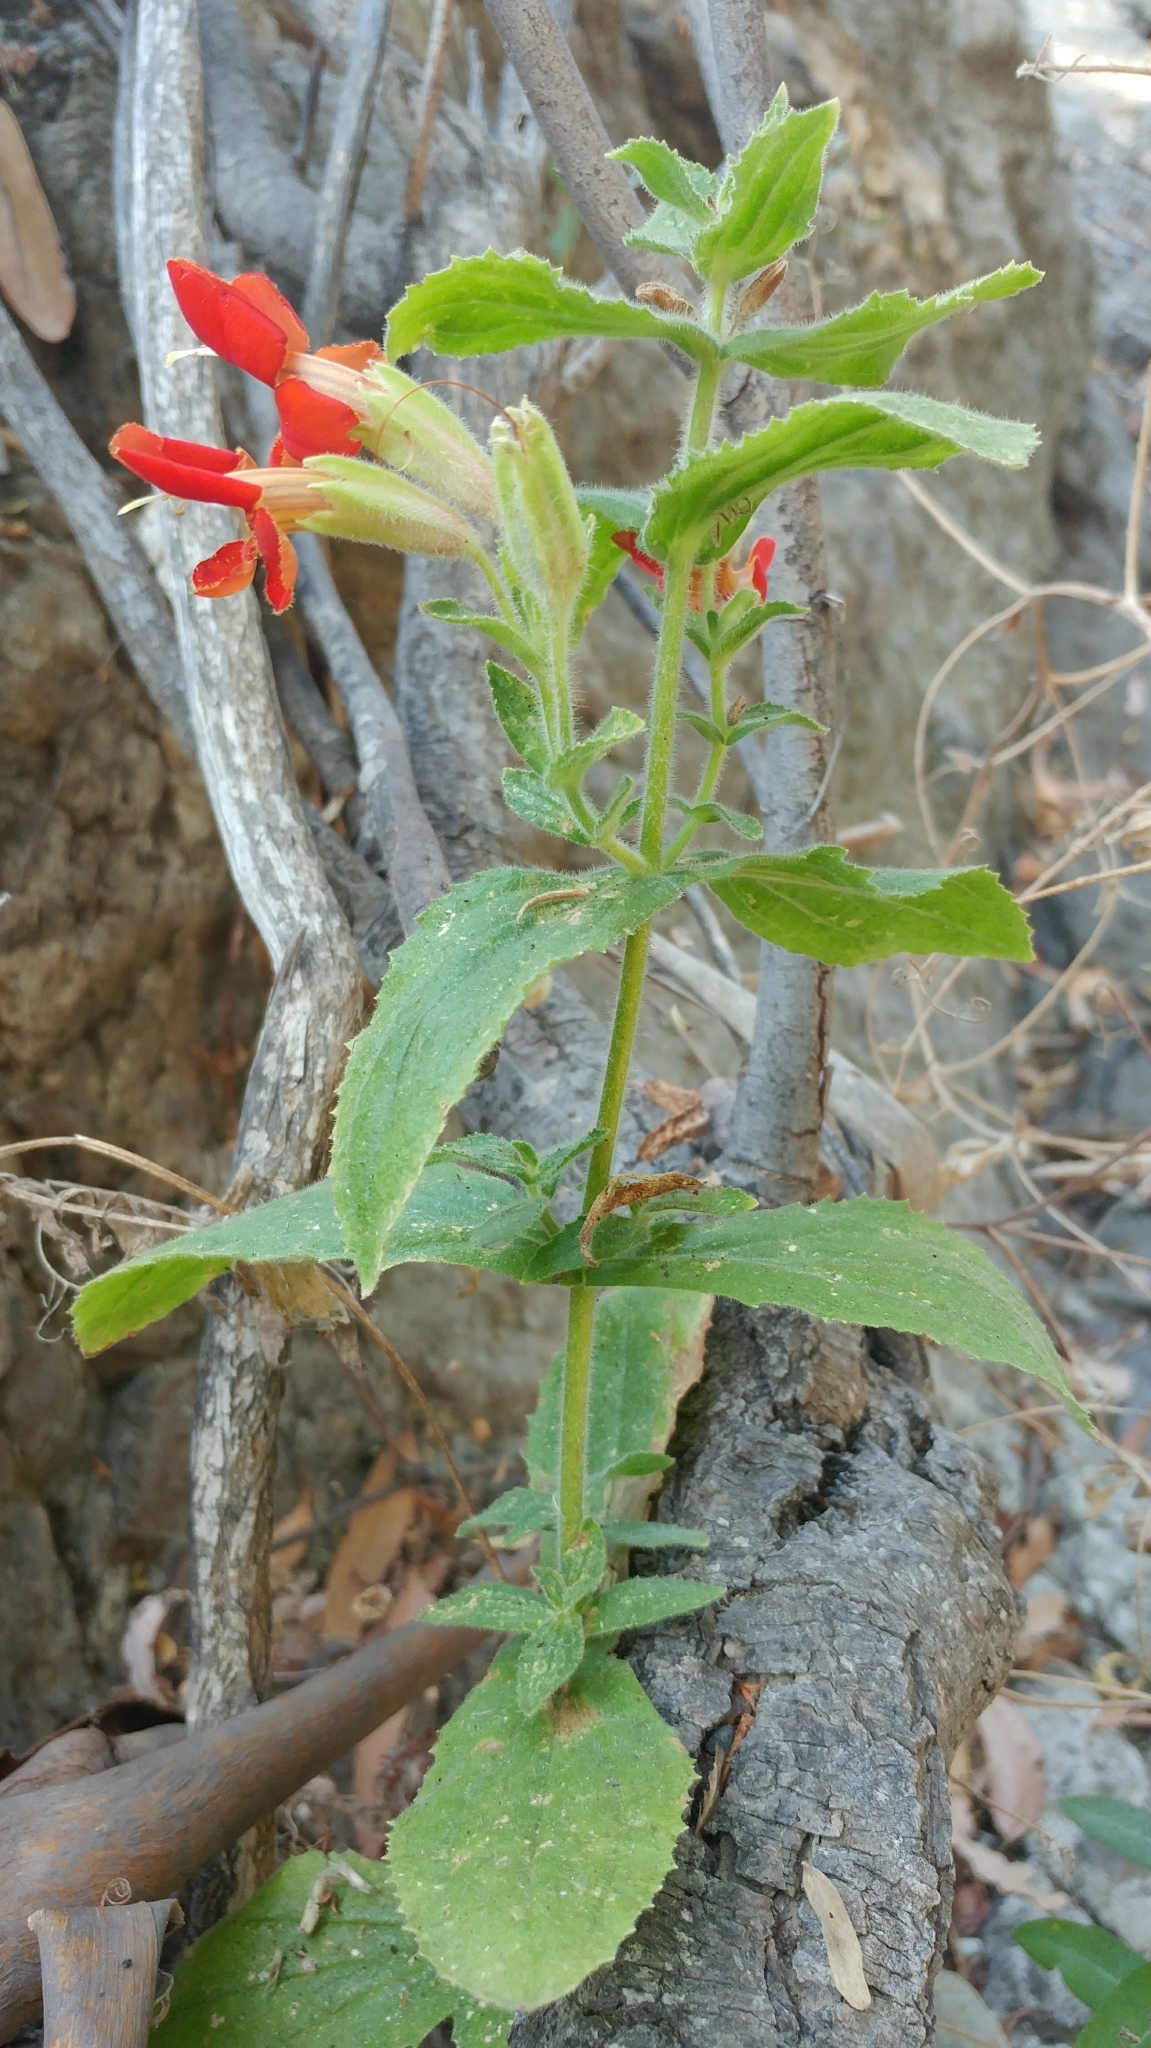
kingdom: Plantae
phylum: Tracheophyta
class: Magnoliopsida
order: Lamiales
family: Phrymaceae
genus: Erythranthe
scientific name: Erythranthe cardinalis
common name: Scarlet monkey-flower
